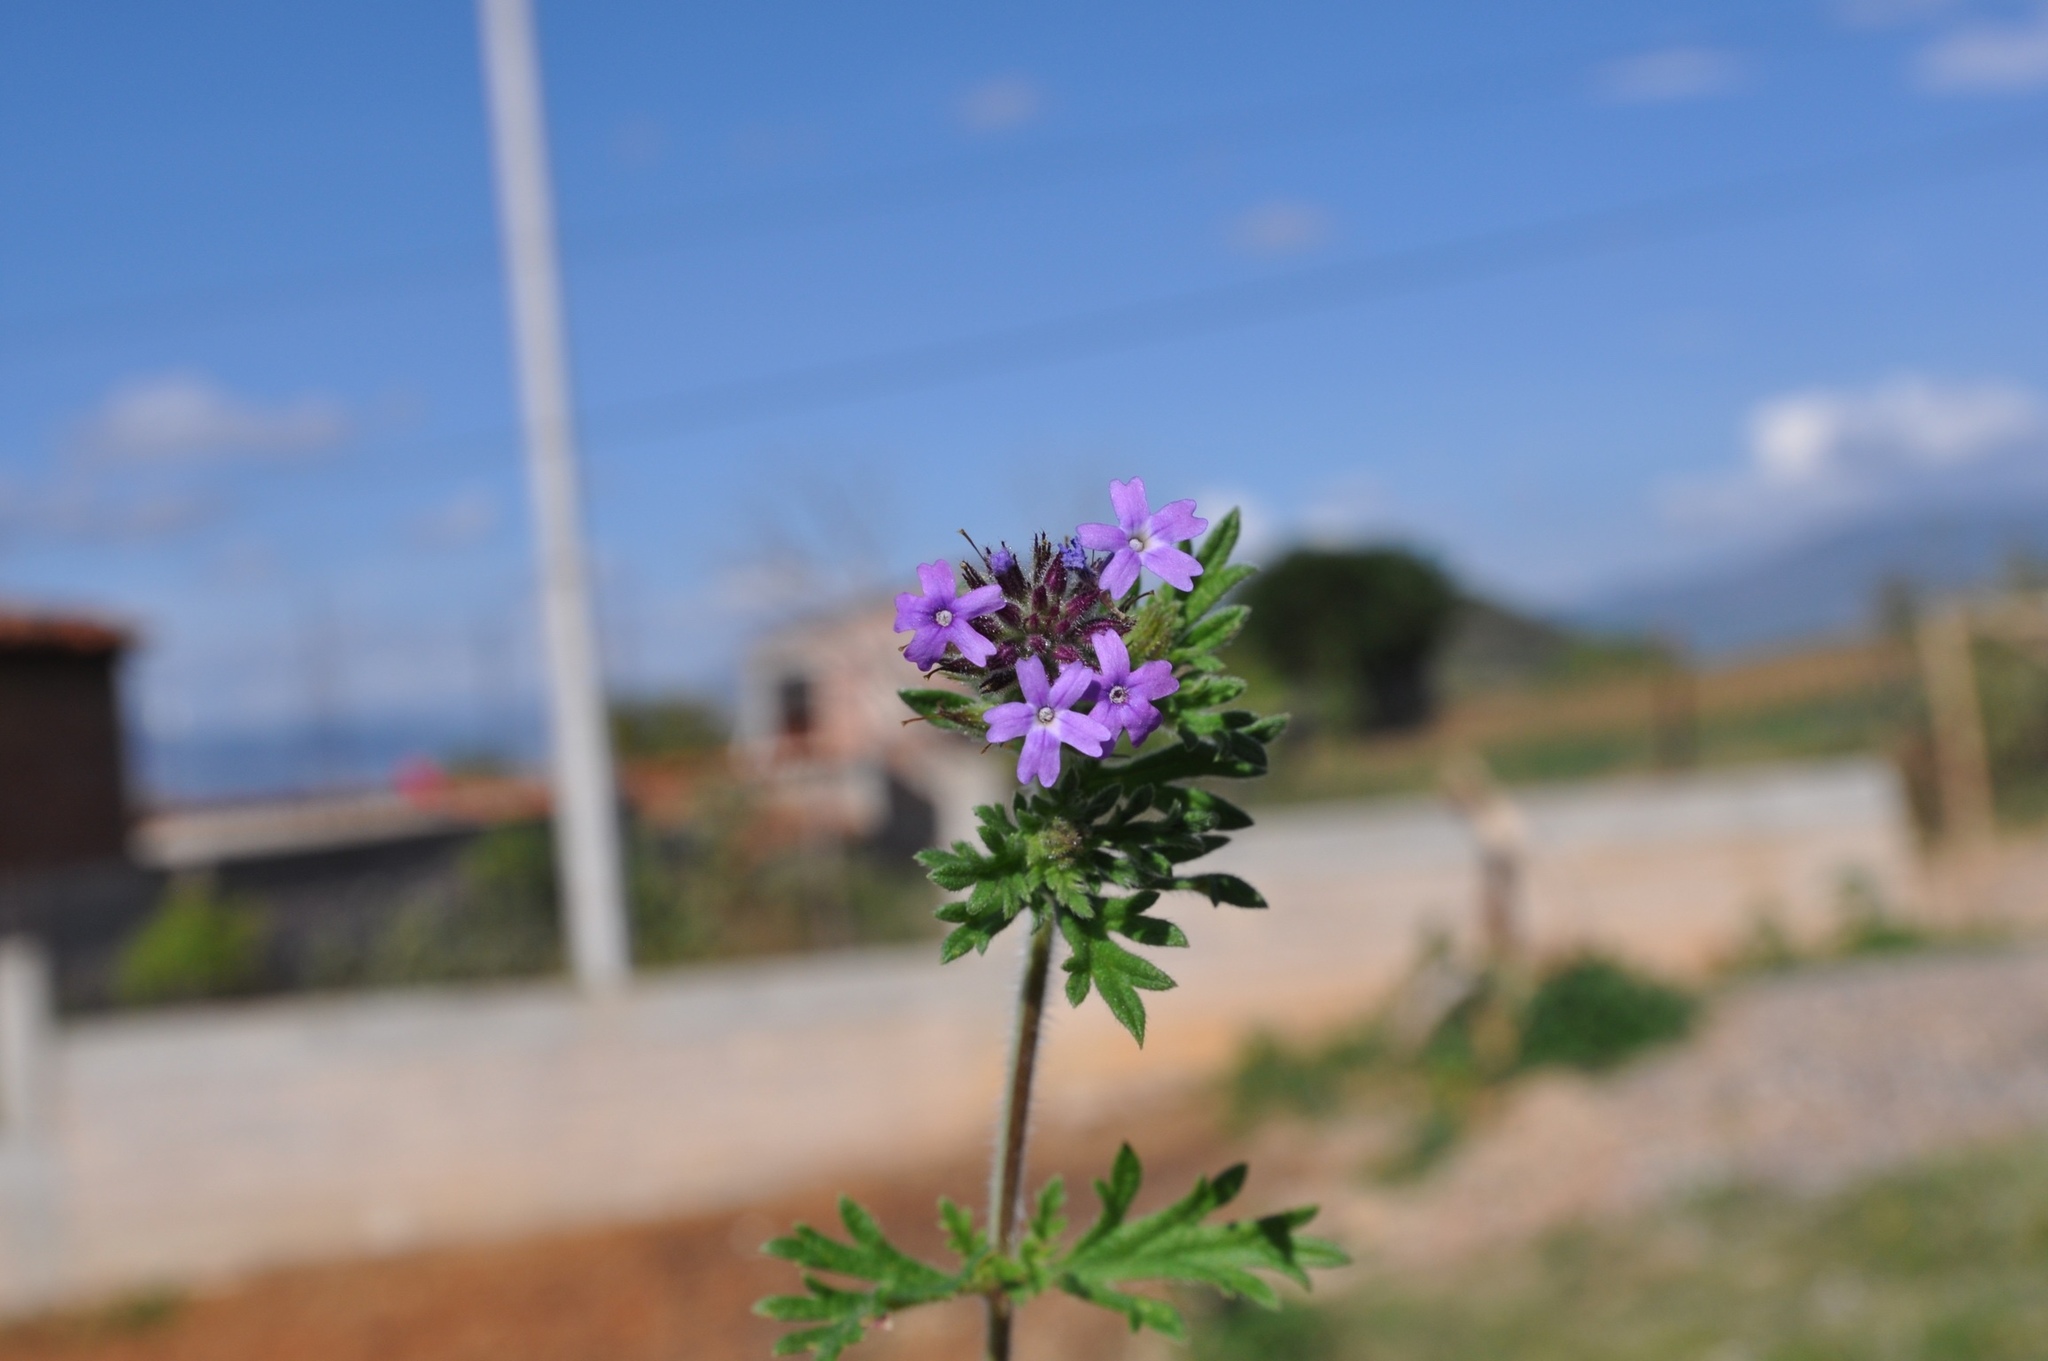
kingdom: Plantae
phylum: Tracheophyta
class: Magnoliopsida
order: Lamiales
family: Verbenaceae
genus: Verbena
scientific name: Verbena bipinnatifida
